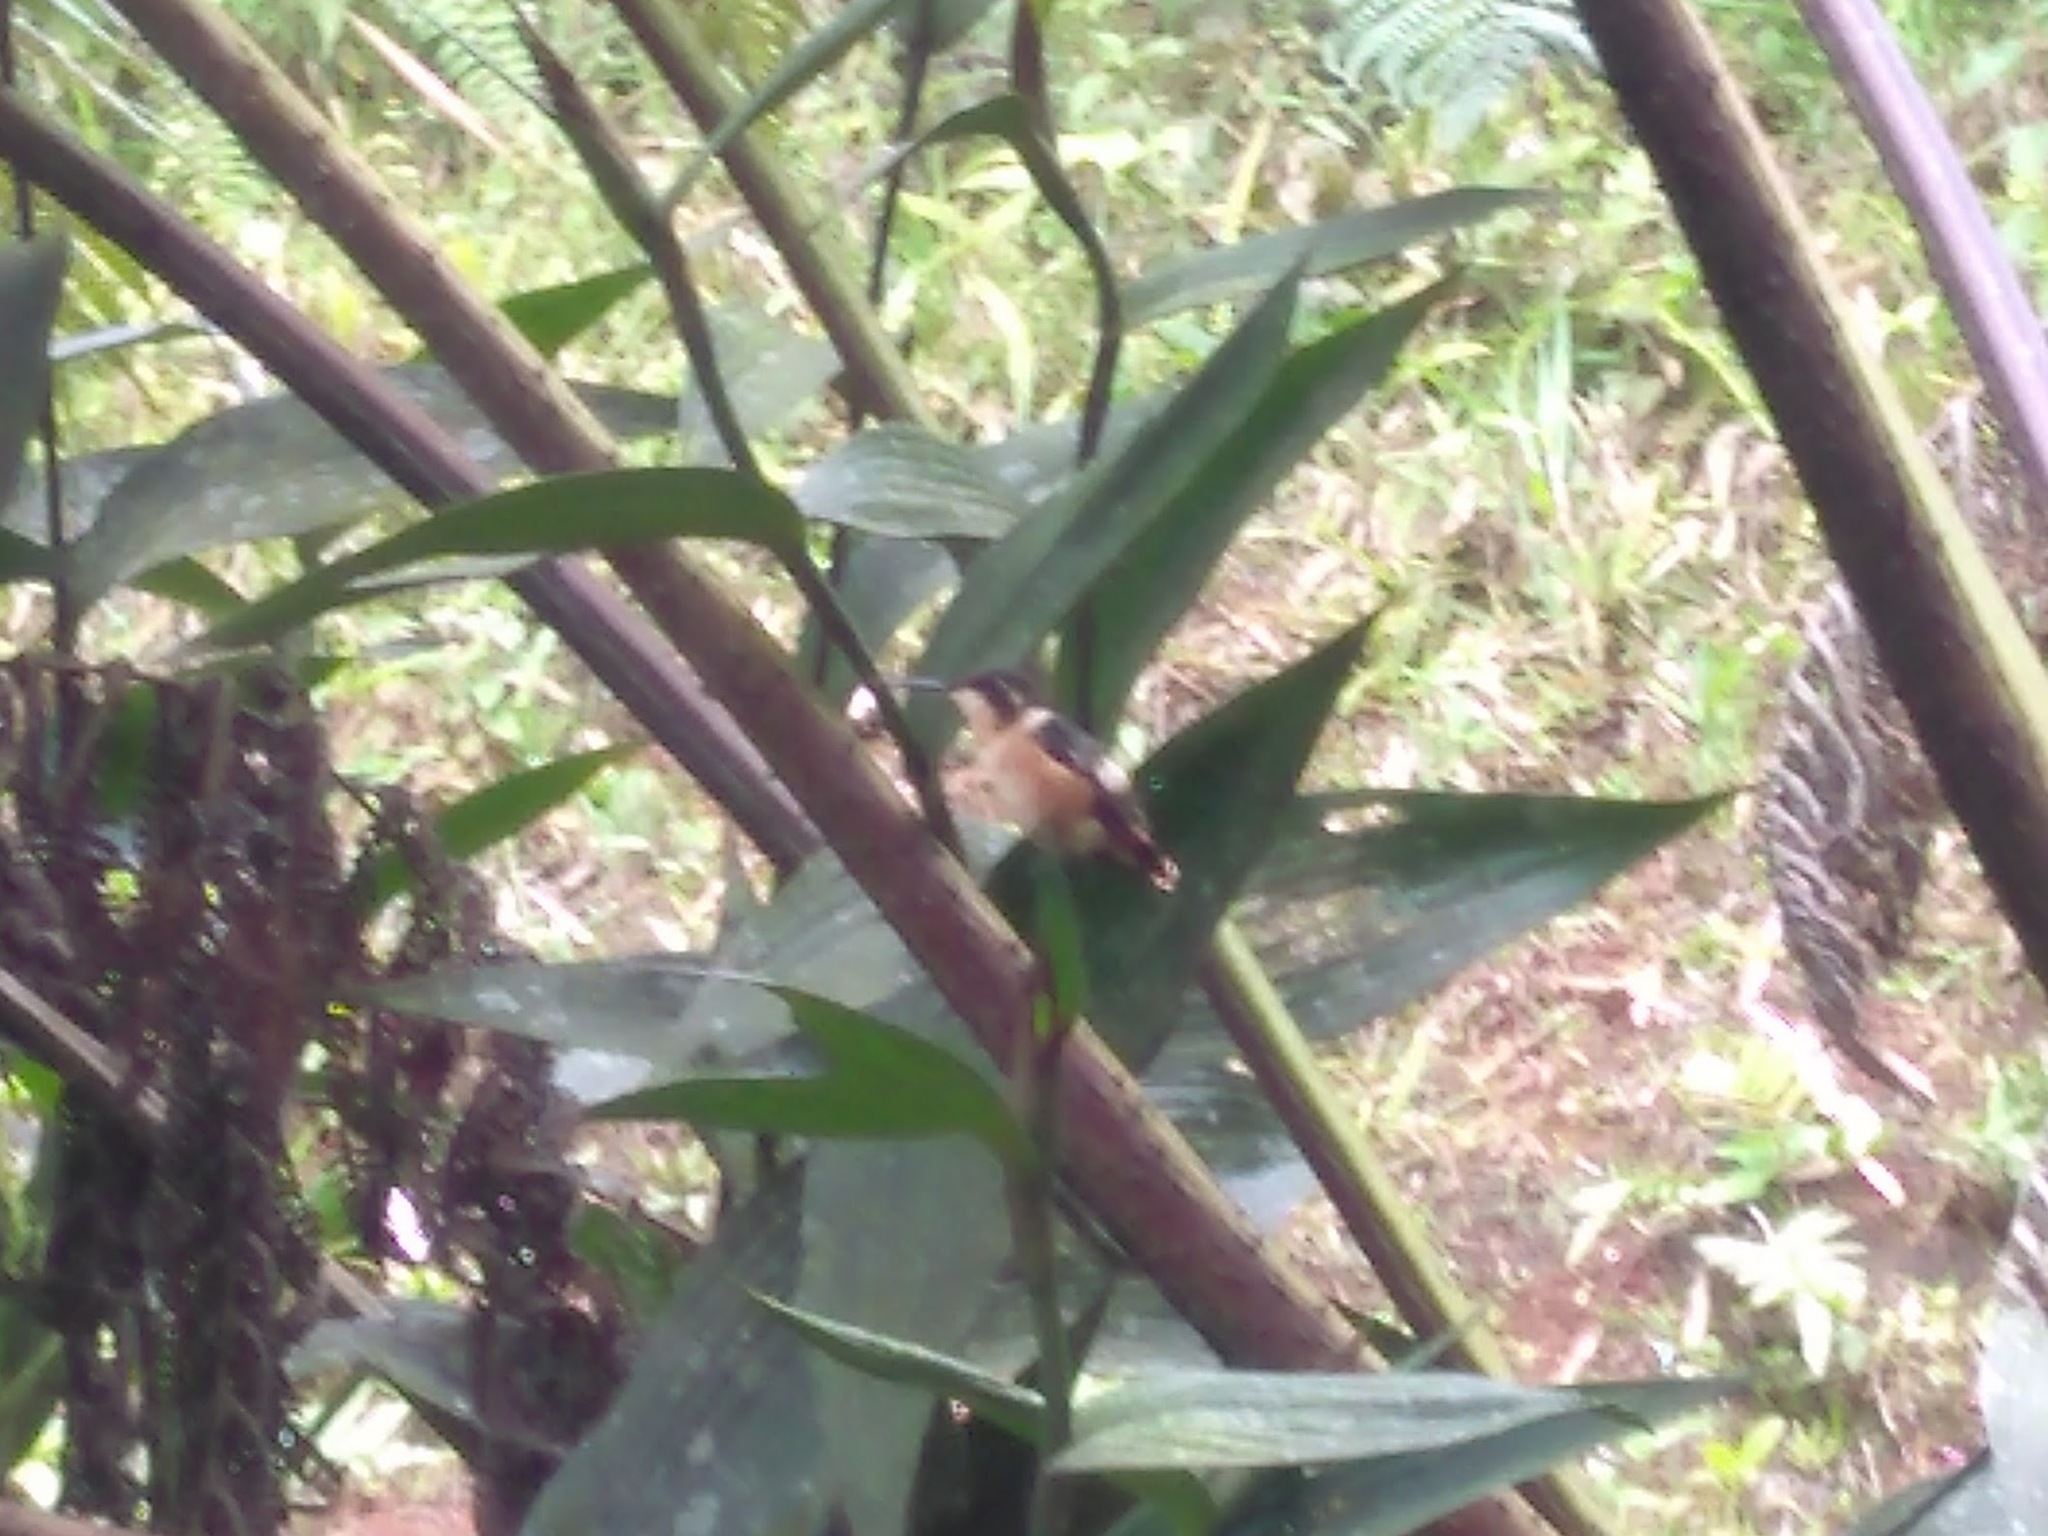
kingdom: Animalia
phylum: Chordata
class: Aves
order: Apodiformes
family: Trochilidae
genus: Calliphlox
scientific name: Calliphlox mitchellii
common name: Purple-throated woodstar
